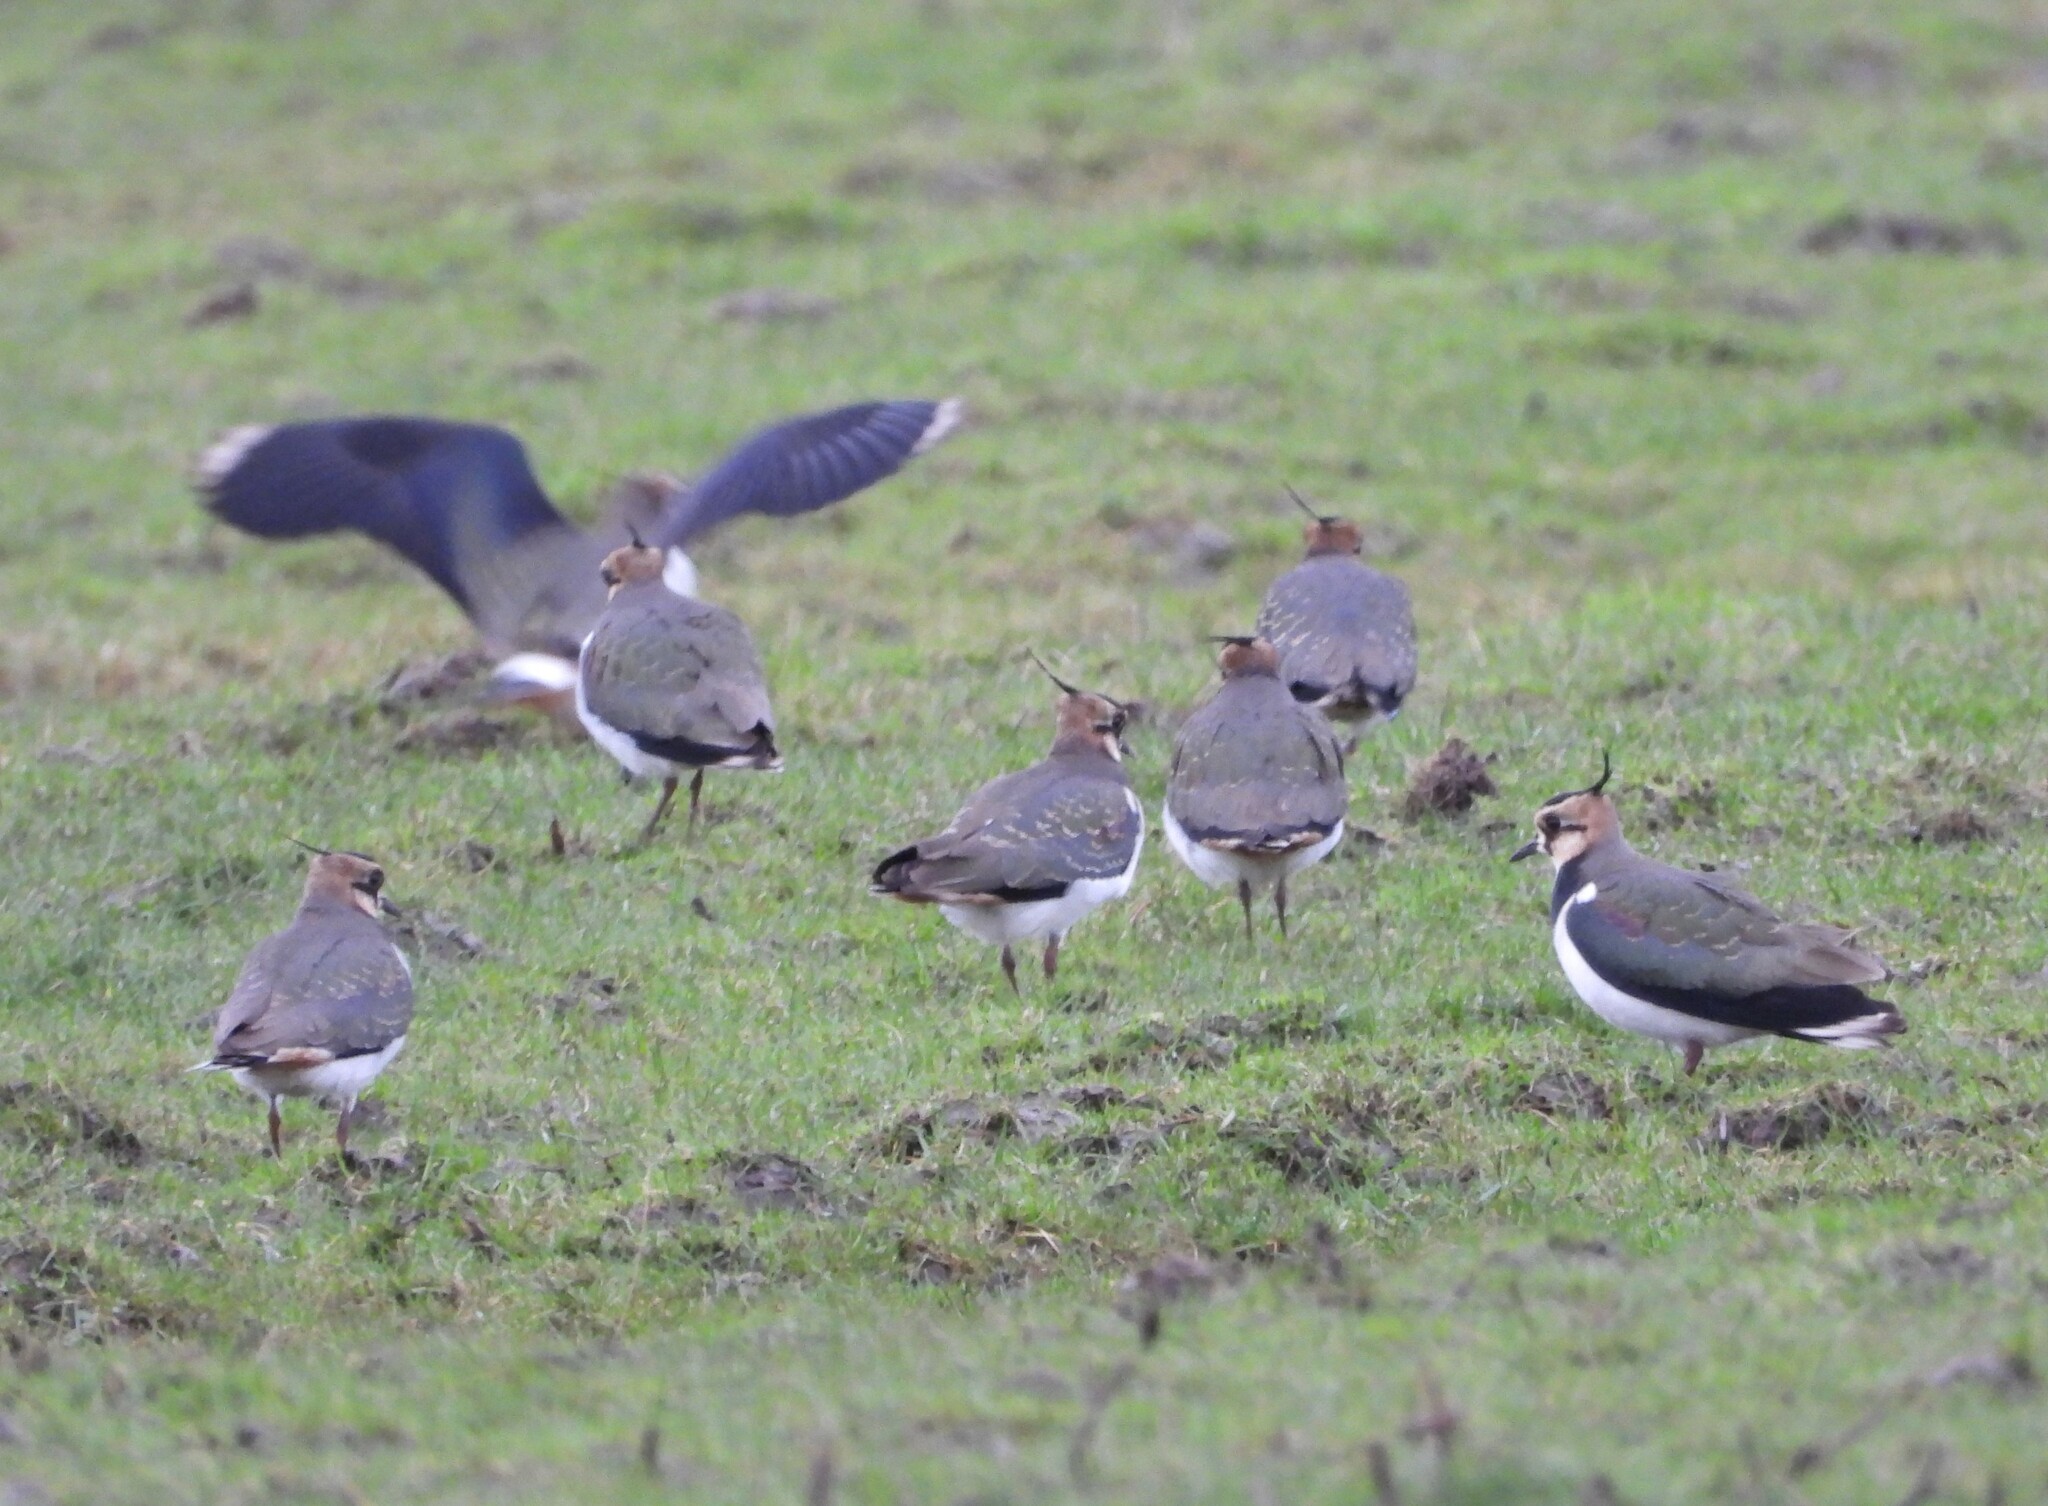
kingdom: Animalia
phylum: Chordata
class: Aves
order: Charadriiformes
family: Charadriidae
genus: Vanellus
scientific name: Vanellus vanellus
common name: Northern lapwing
